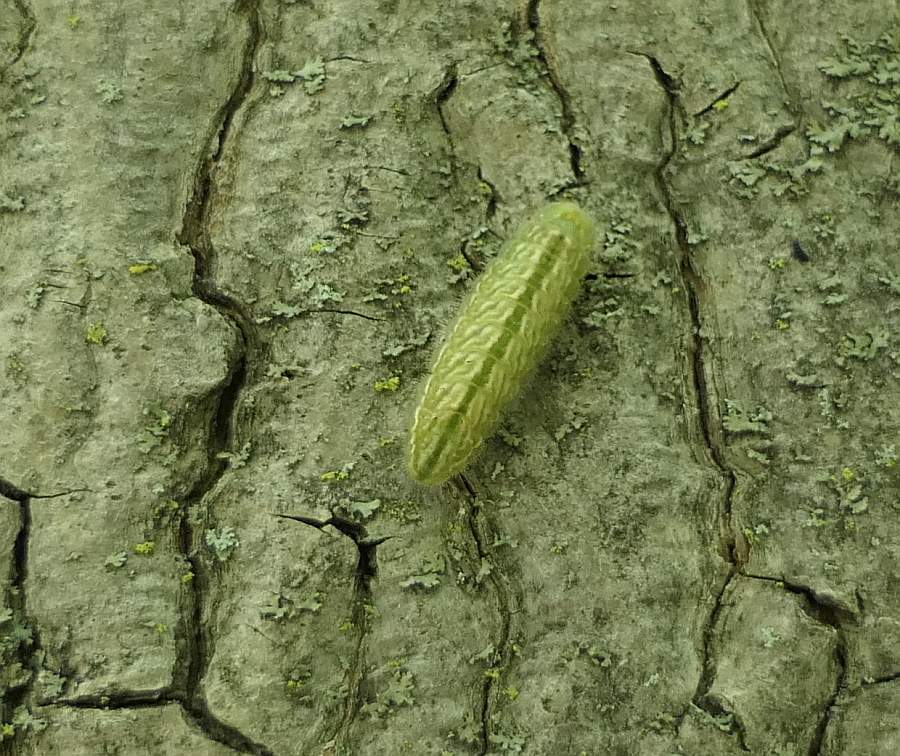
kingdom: Animalia
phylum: Arthropoda
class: Insecta
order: Lepidoptera
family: Lycaenidae
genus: Strymon
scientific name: Strymon caryaevorus
